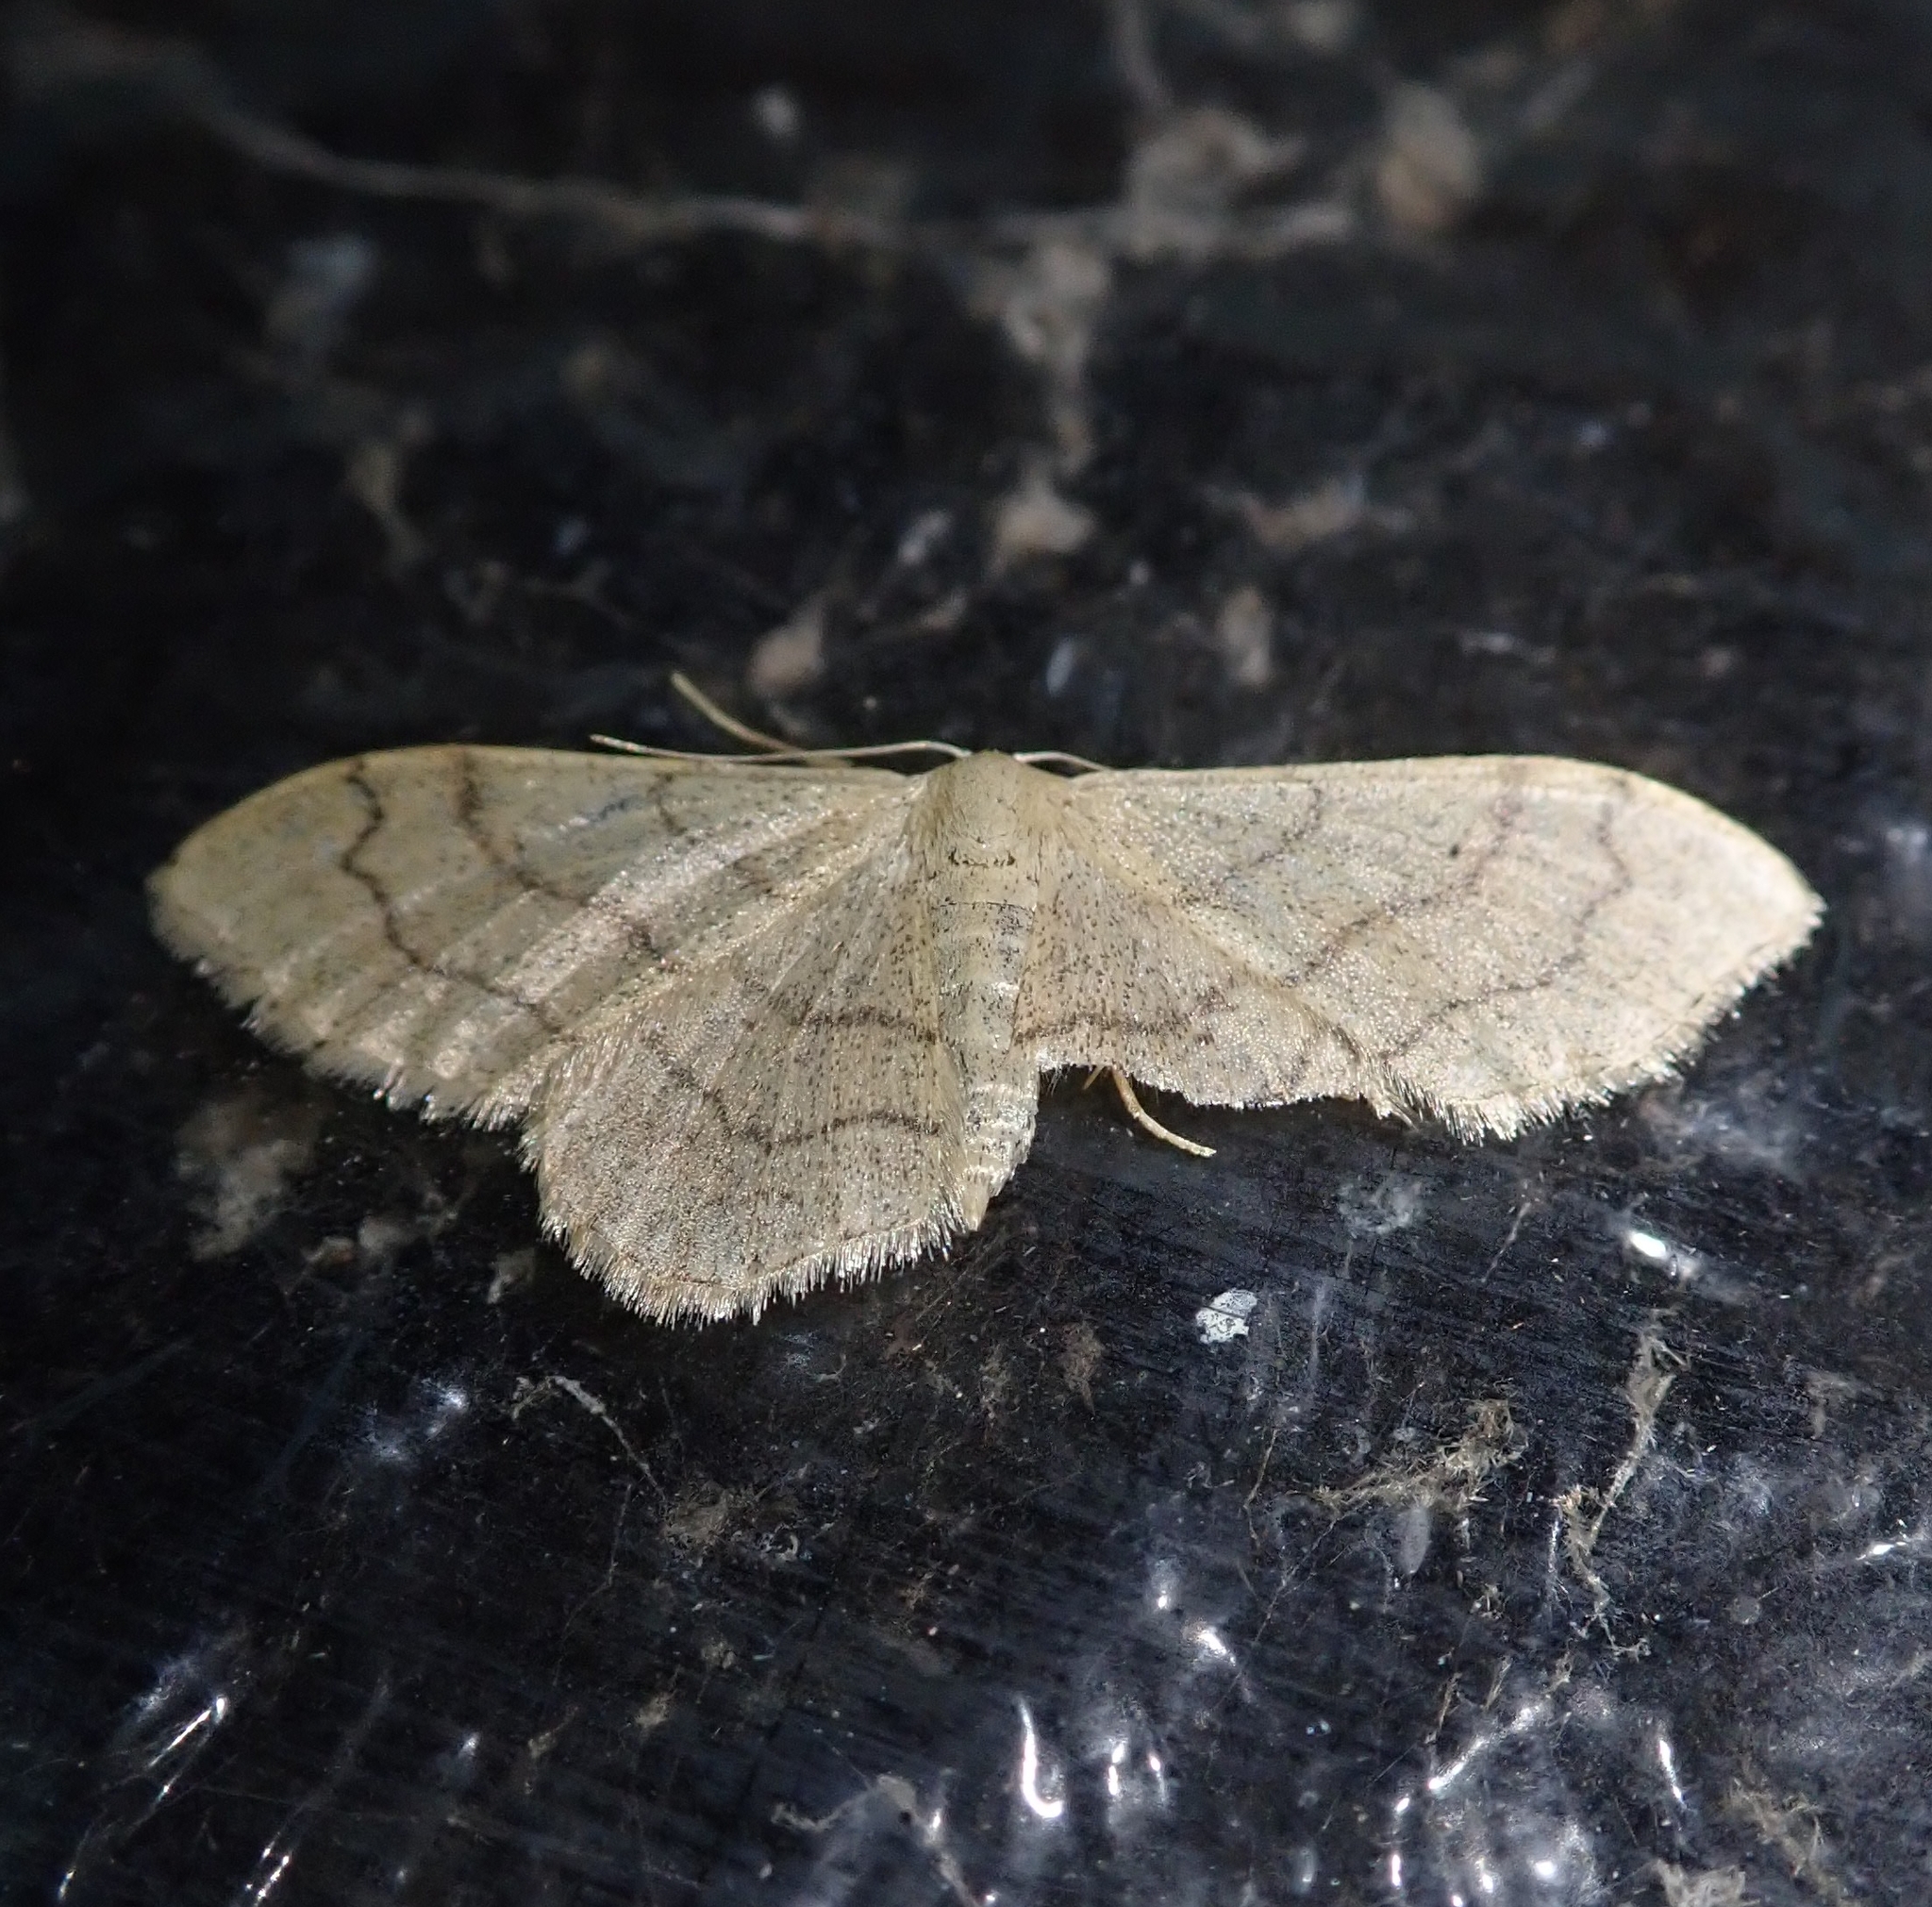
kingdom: Animalia
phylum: Arthropoda
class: Insecta
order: Lepidoptera
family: Geometridae
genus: Idaea
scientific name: Idaea aversata
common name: Riband wave
